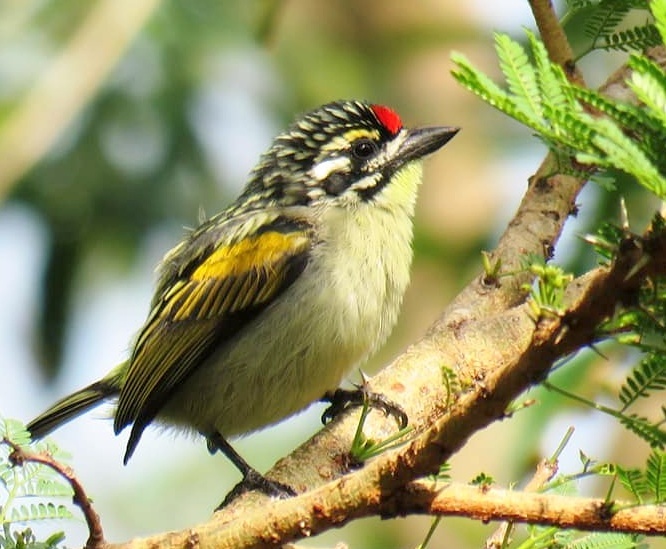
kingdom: Animalia
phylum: Chordata
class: Aves
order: Piciformes
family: Lybiidae
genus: Pogoniulus
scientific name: Pogoniulus pusillus
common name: Red-fronted tinkerbird
